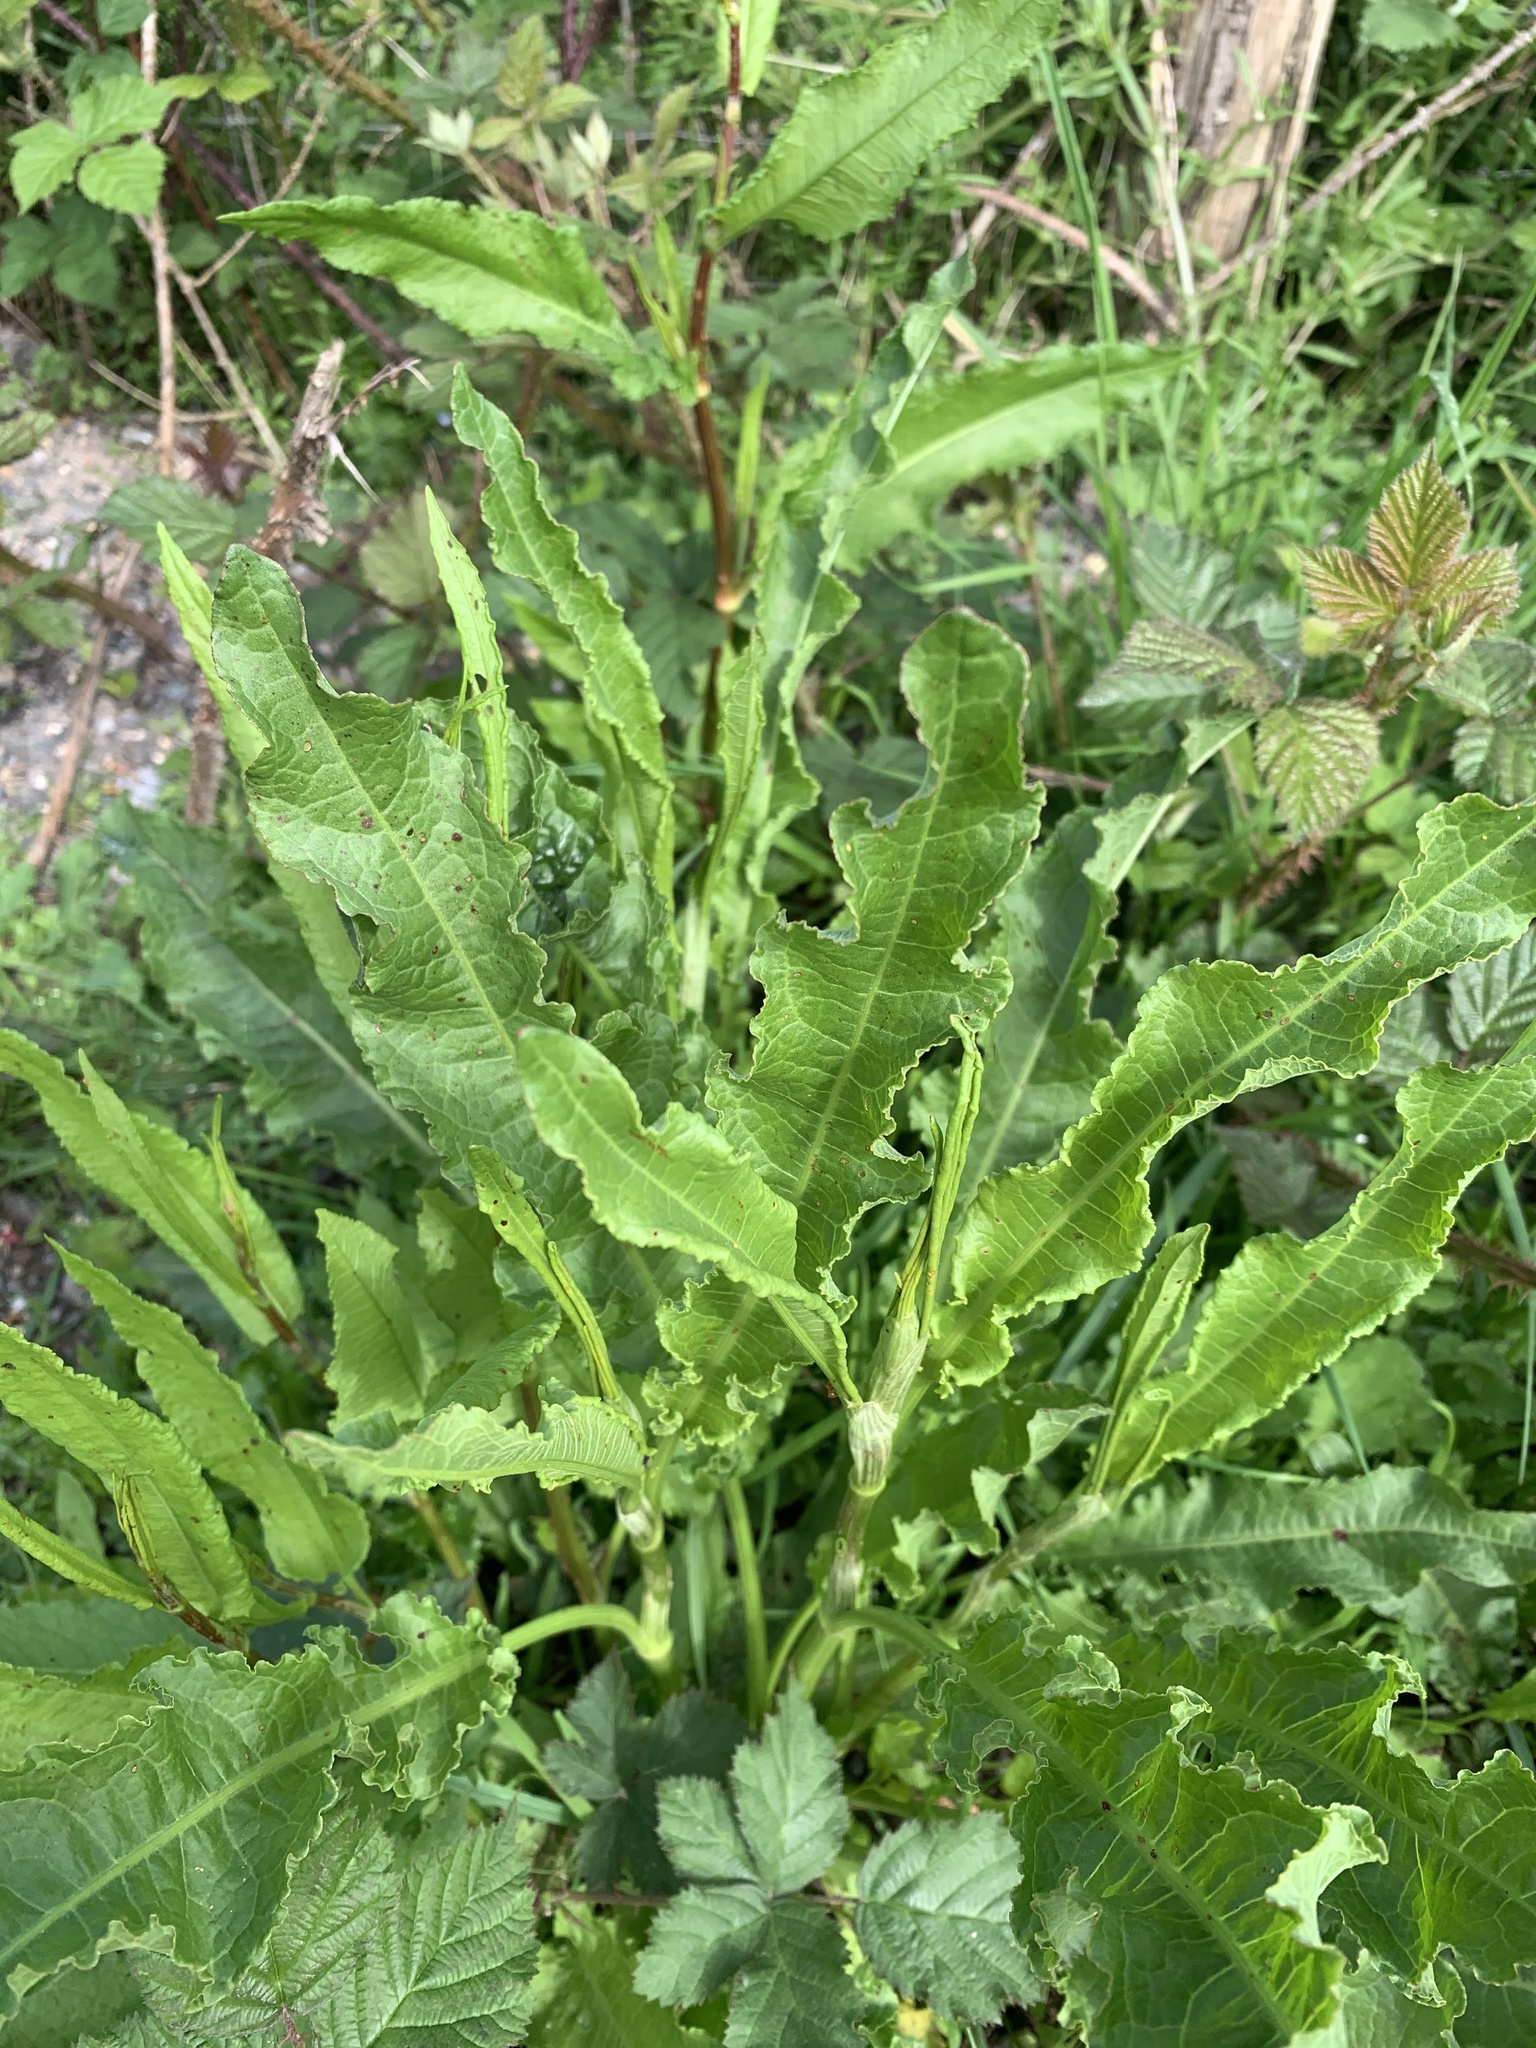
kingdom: Plantae
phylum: Tracheophyta
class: Magnoliopsida
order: Caryophyllales
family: Polygonaceae
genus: Rumex
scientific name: Rumex crispus
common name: Curled dock
